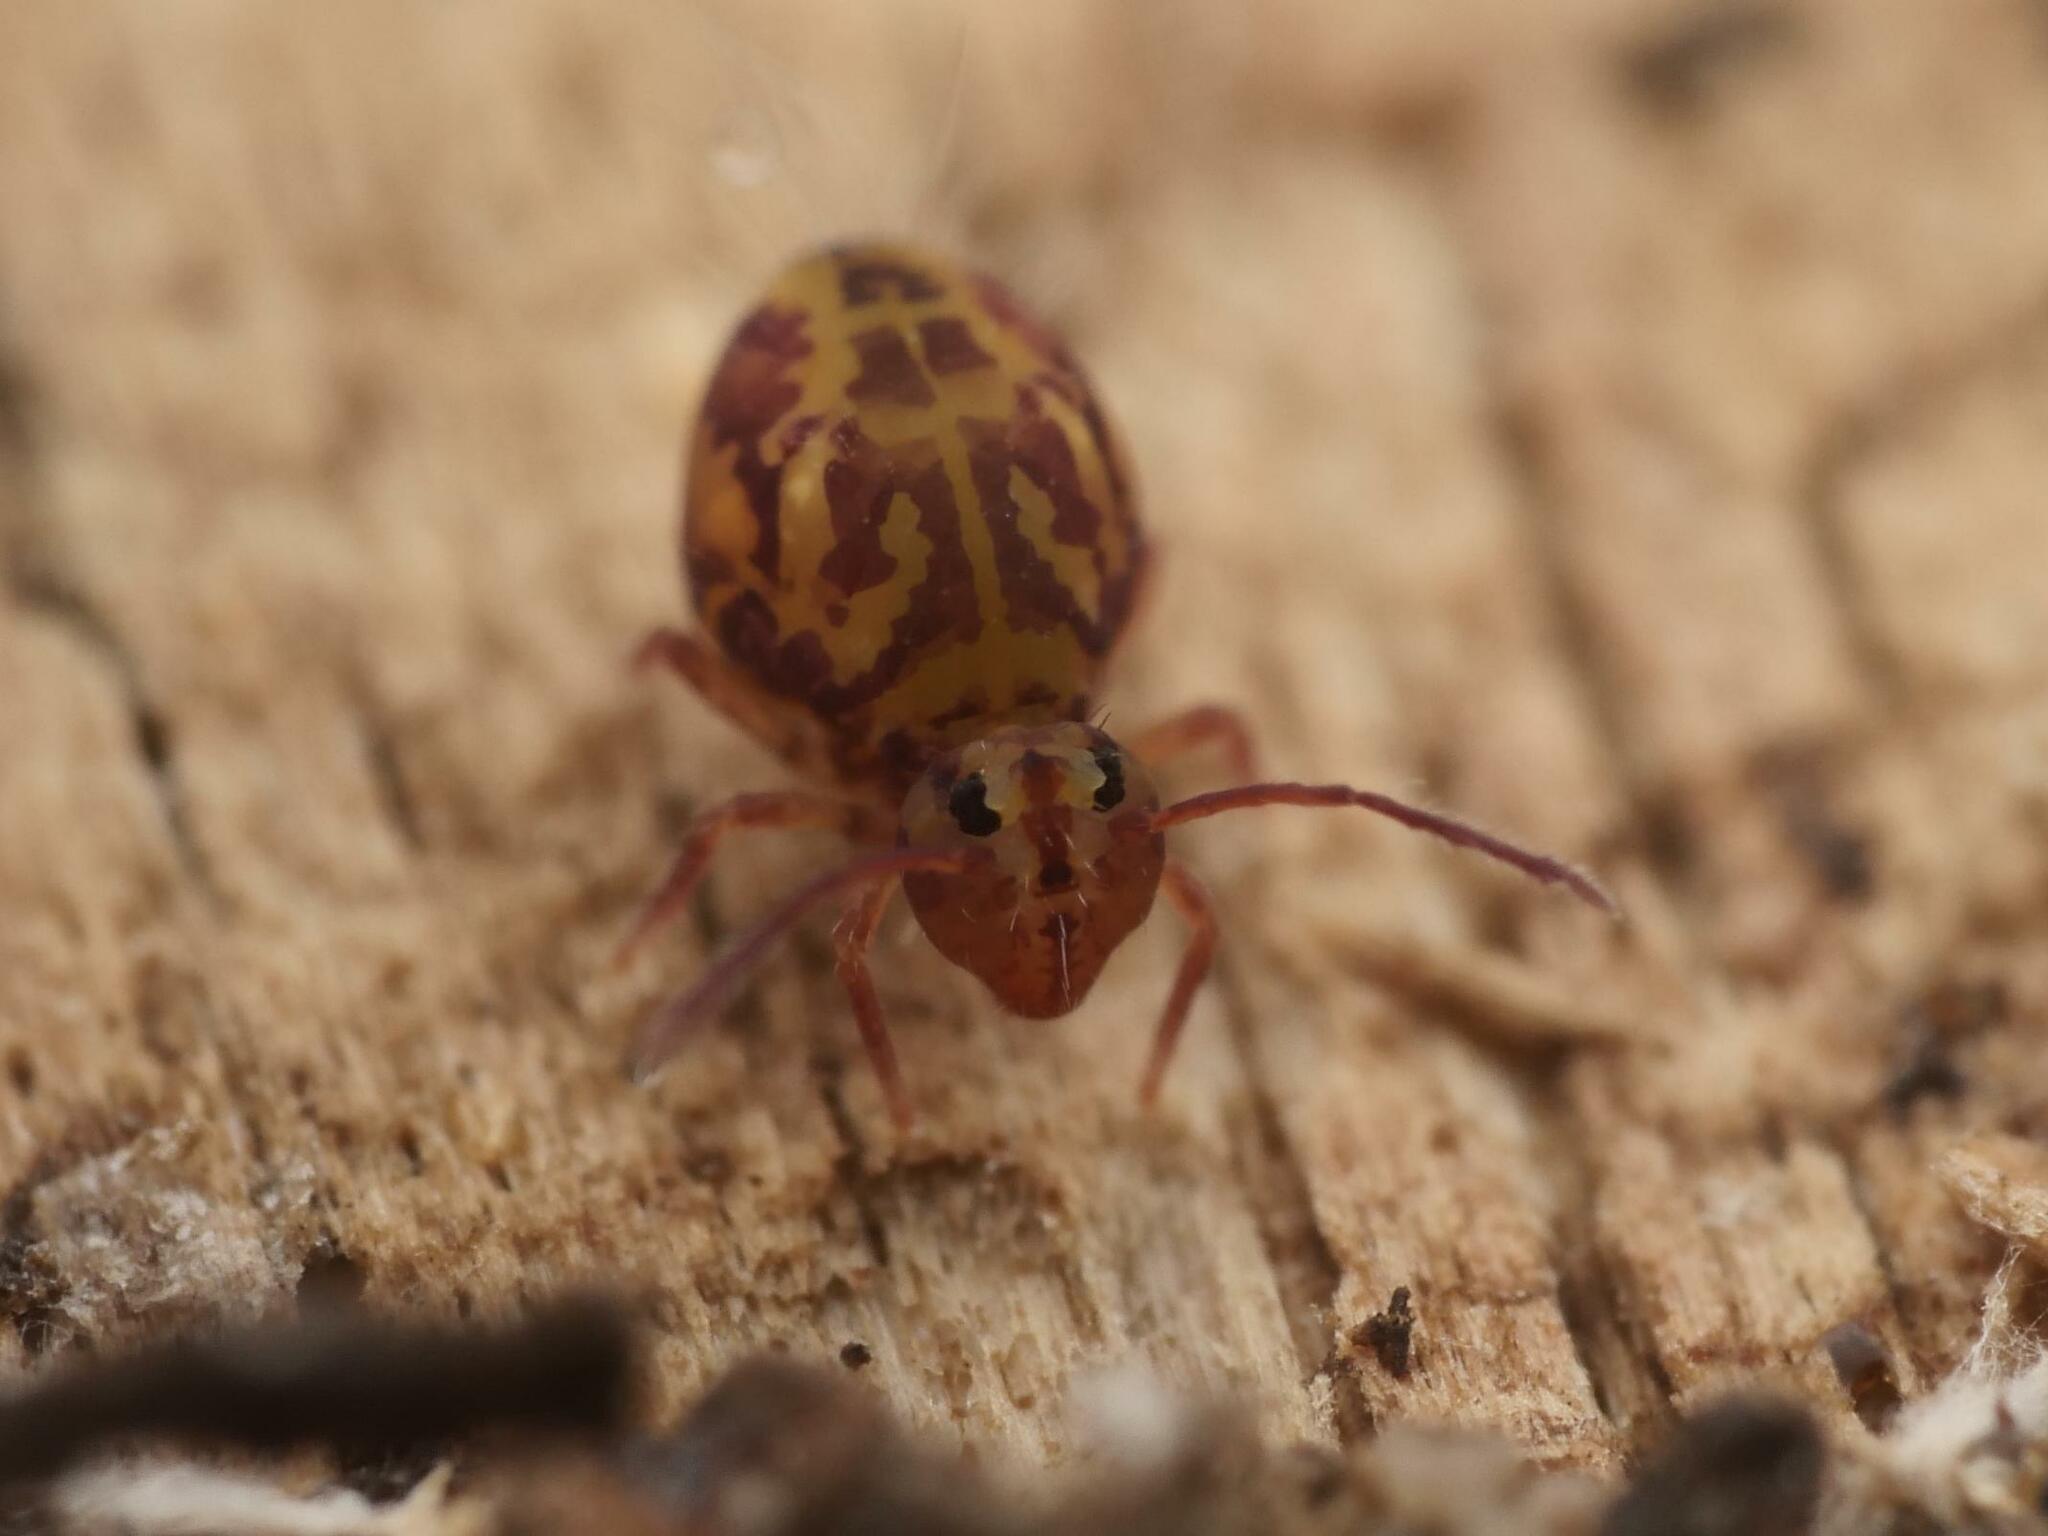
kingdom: Animalia
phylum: Arthropoda
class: Collembola
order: Symphypleona
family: Dicyrtomidae
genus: Dicyrtomina
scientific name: Dicyrtomina ornata
